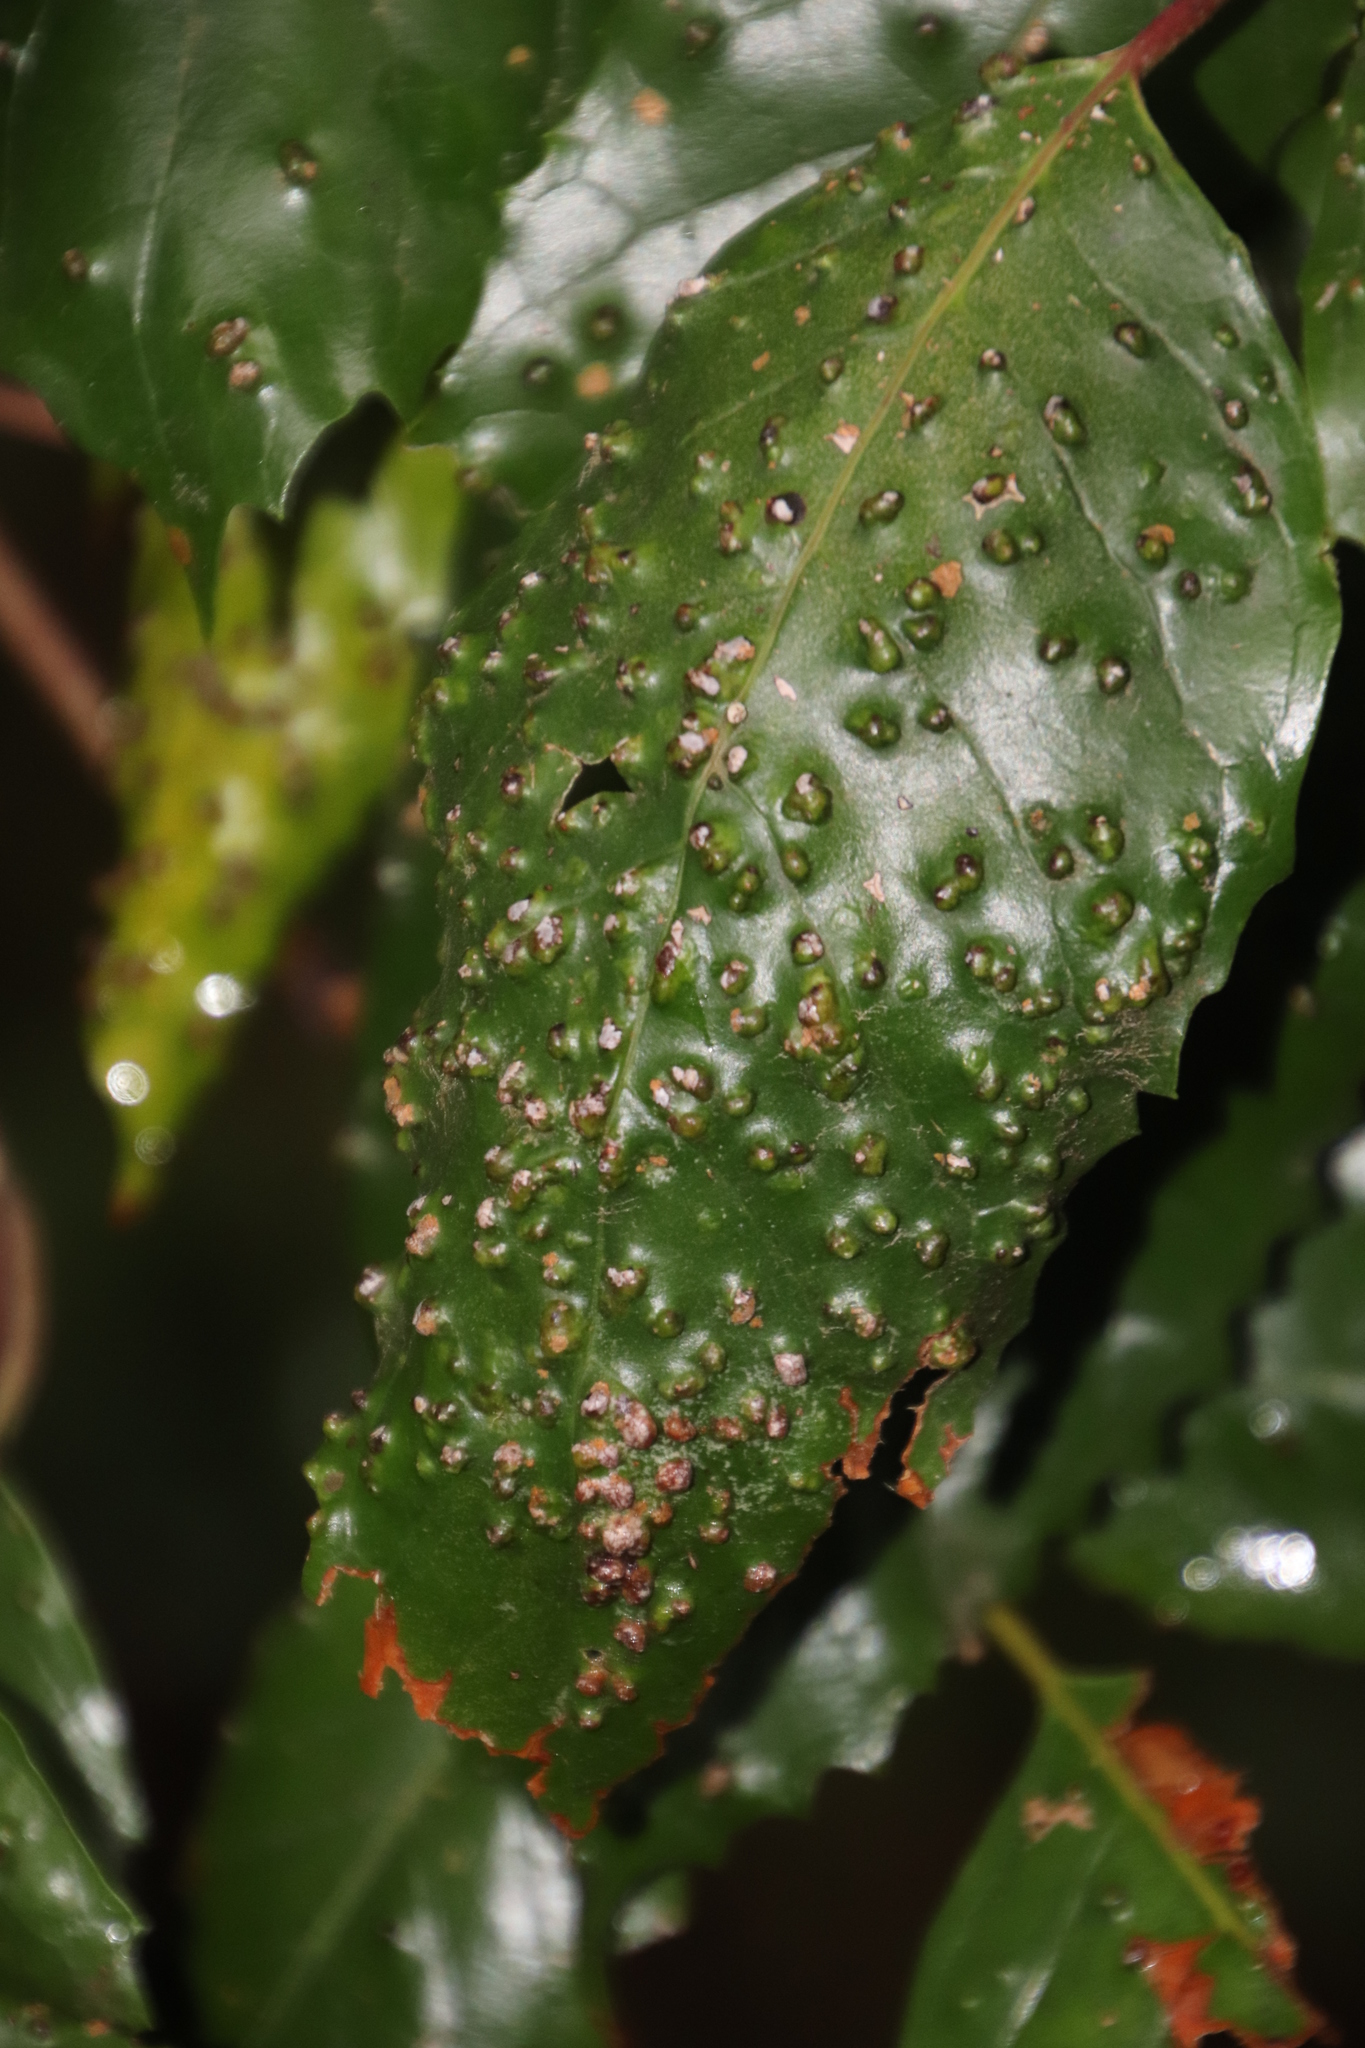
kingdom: Plantae
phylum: Tracheophyta
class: Magnoliopsida
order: Cornales
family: Curtisiaceae
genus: Curtisia
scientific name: Curtisia dentata
